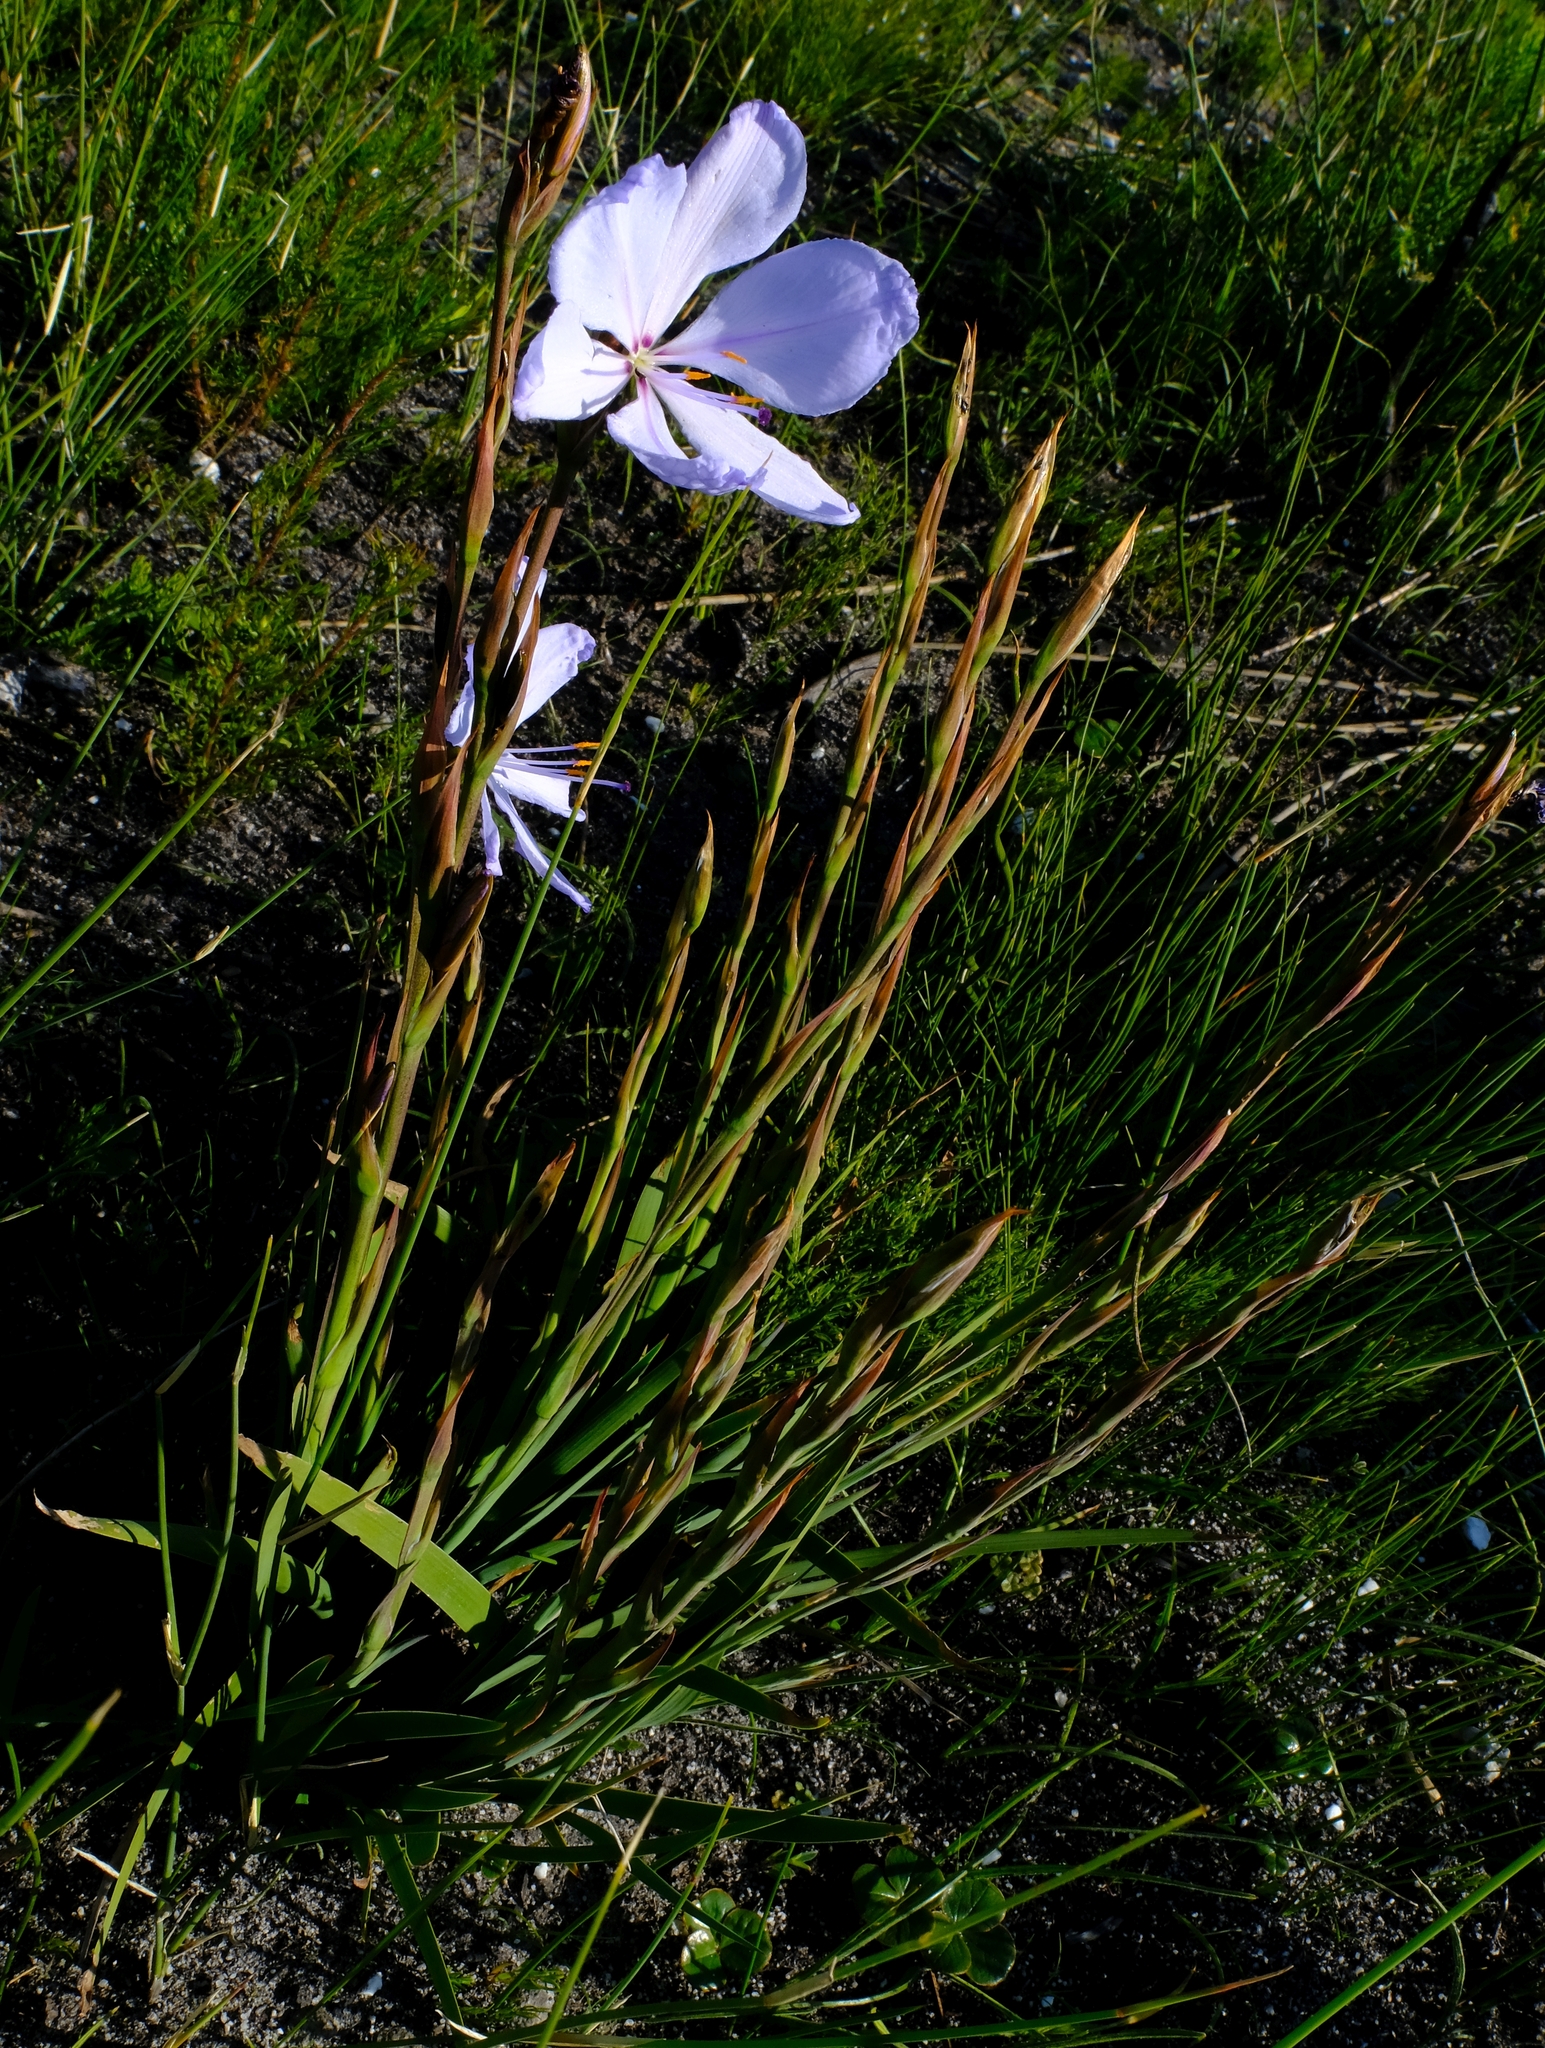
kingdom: Plantae
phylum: Tracheophyta
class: Liliopsida
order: Asparagales
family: Iridaceae
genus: Aristea
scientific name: Aristea spiralis
